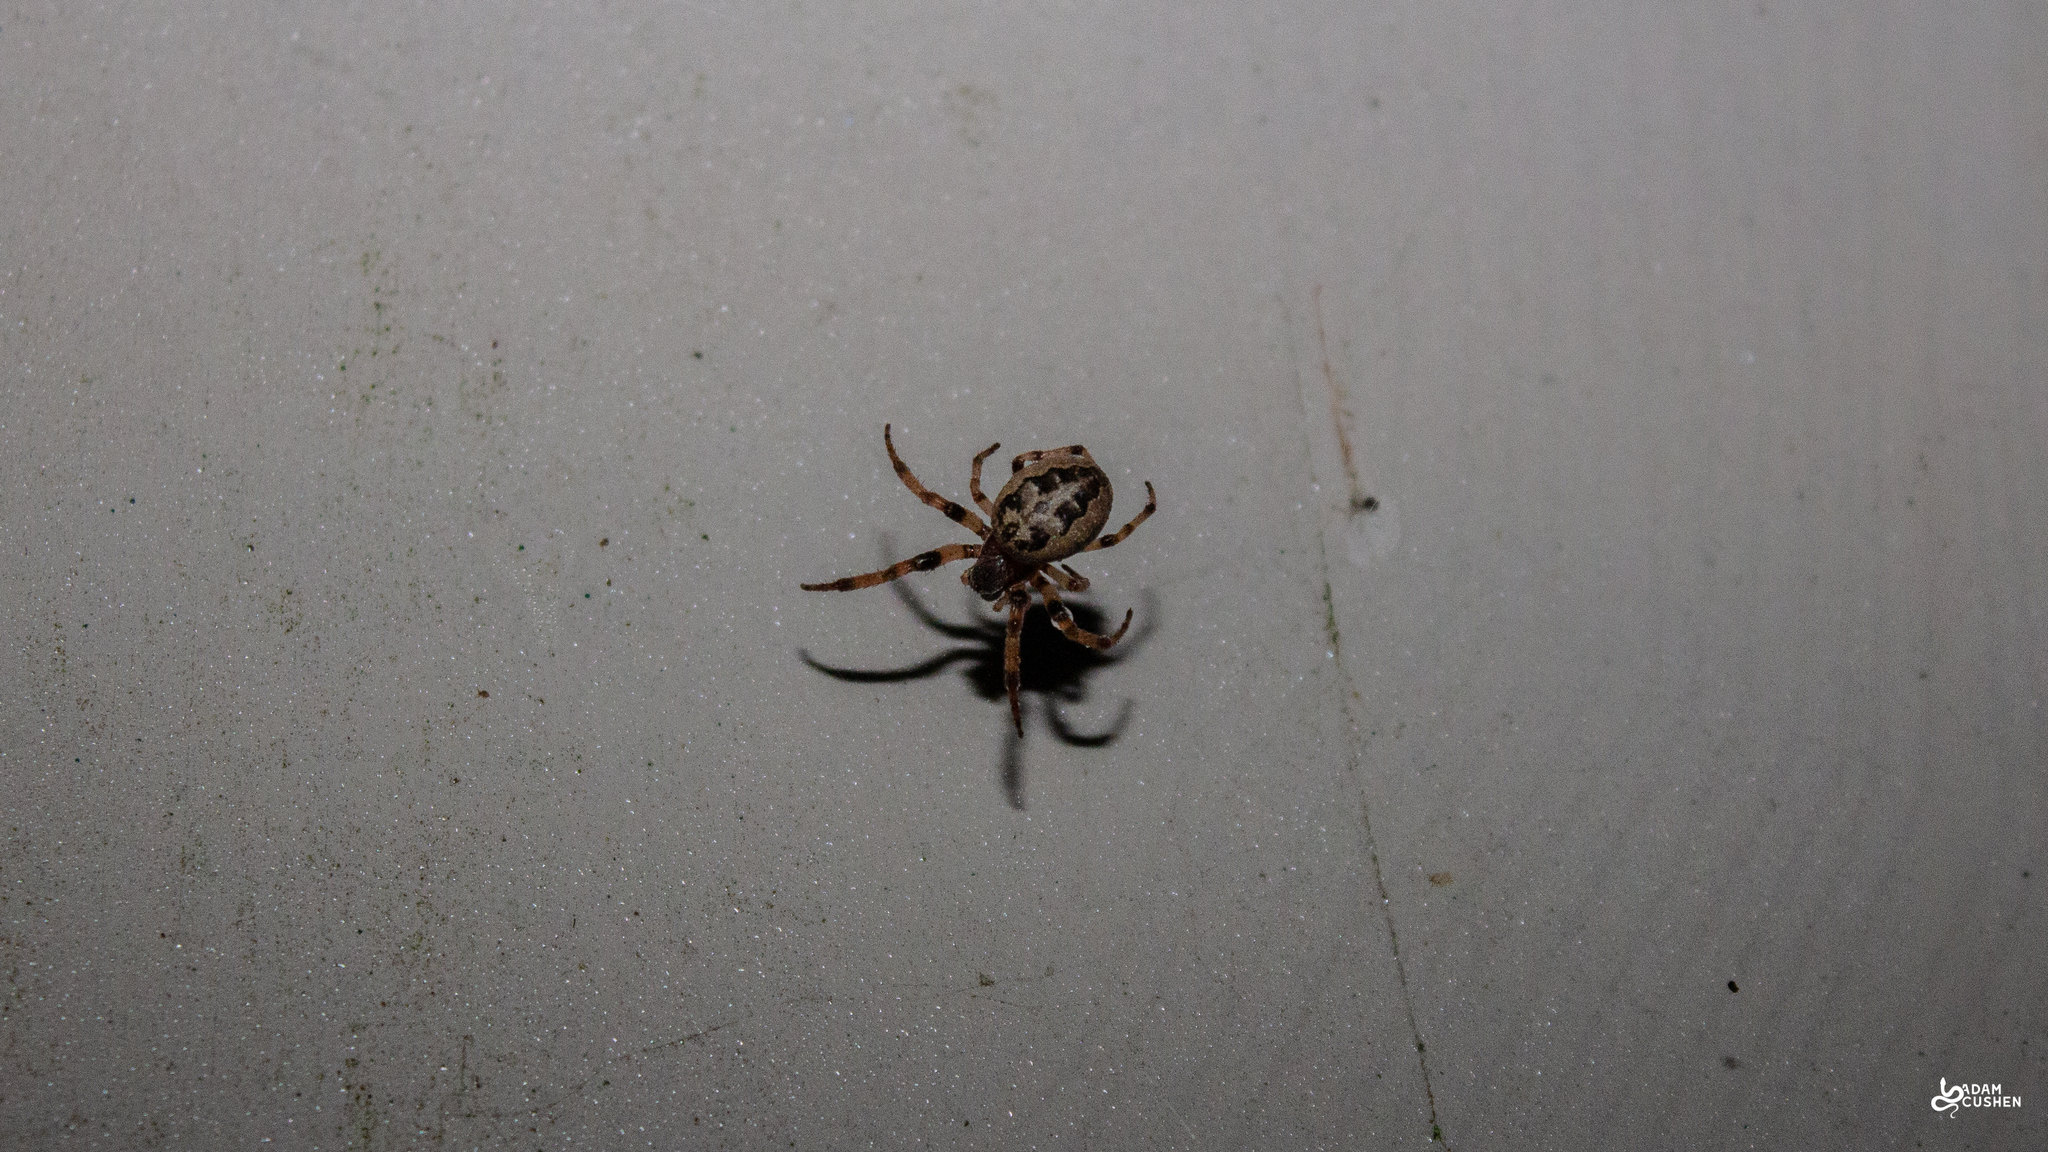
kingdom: Animalia
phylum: Arthropoda
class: Arachnida
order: Araneae
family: Araneidae
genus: Larinioides
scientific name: Larinioides cornutus
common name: Furrow orbweaver
